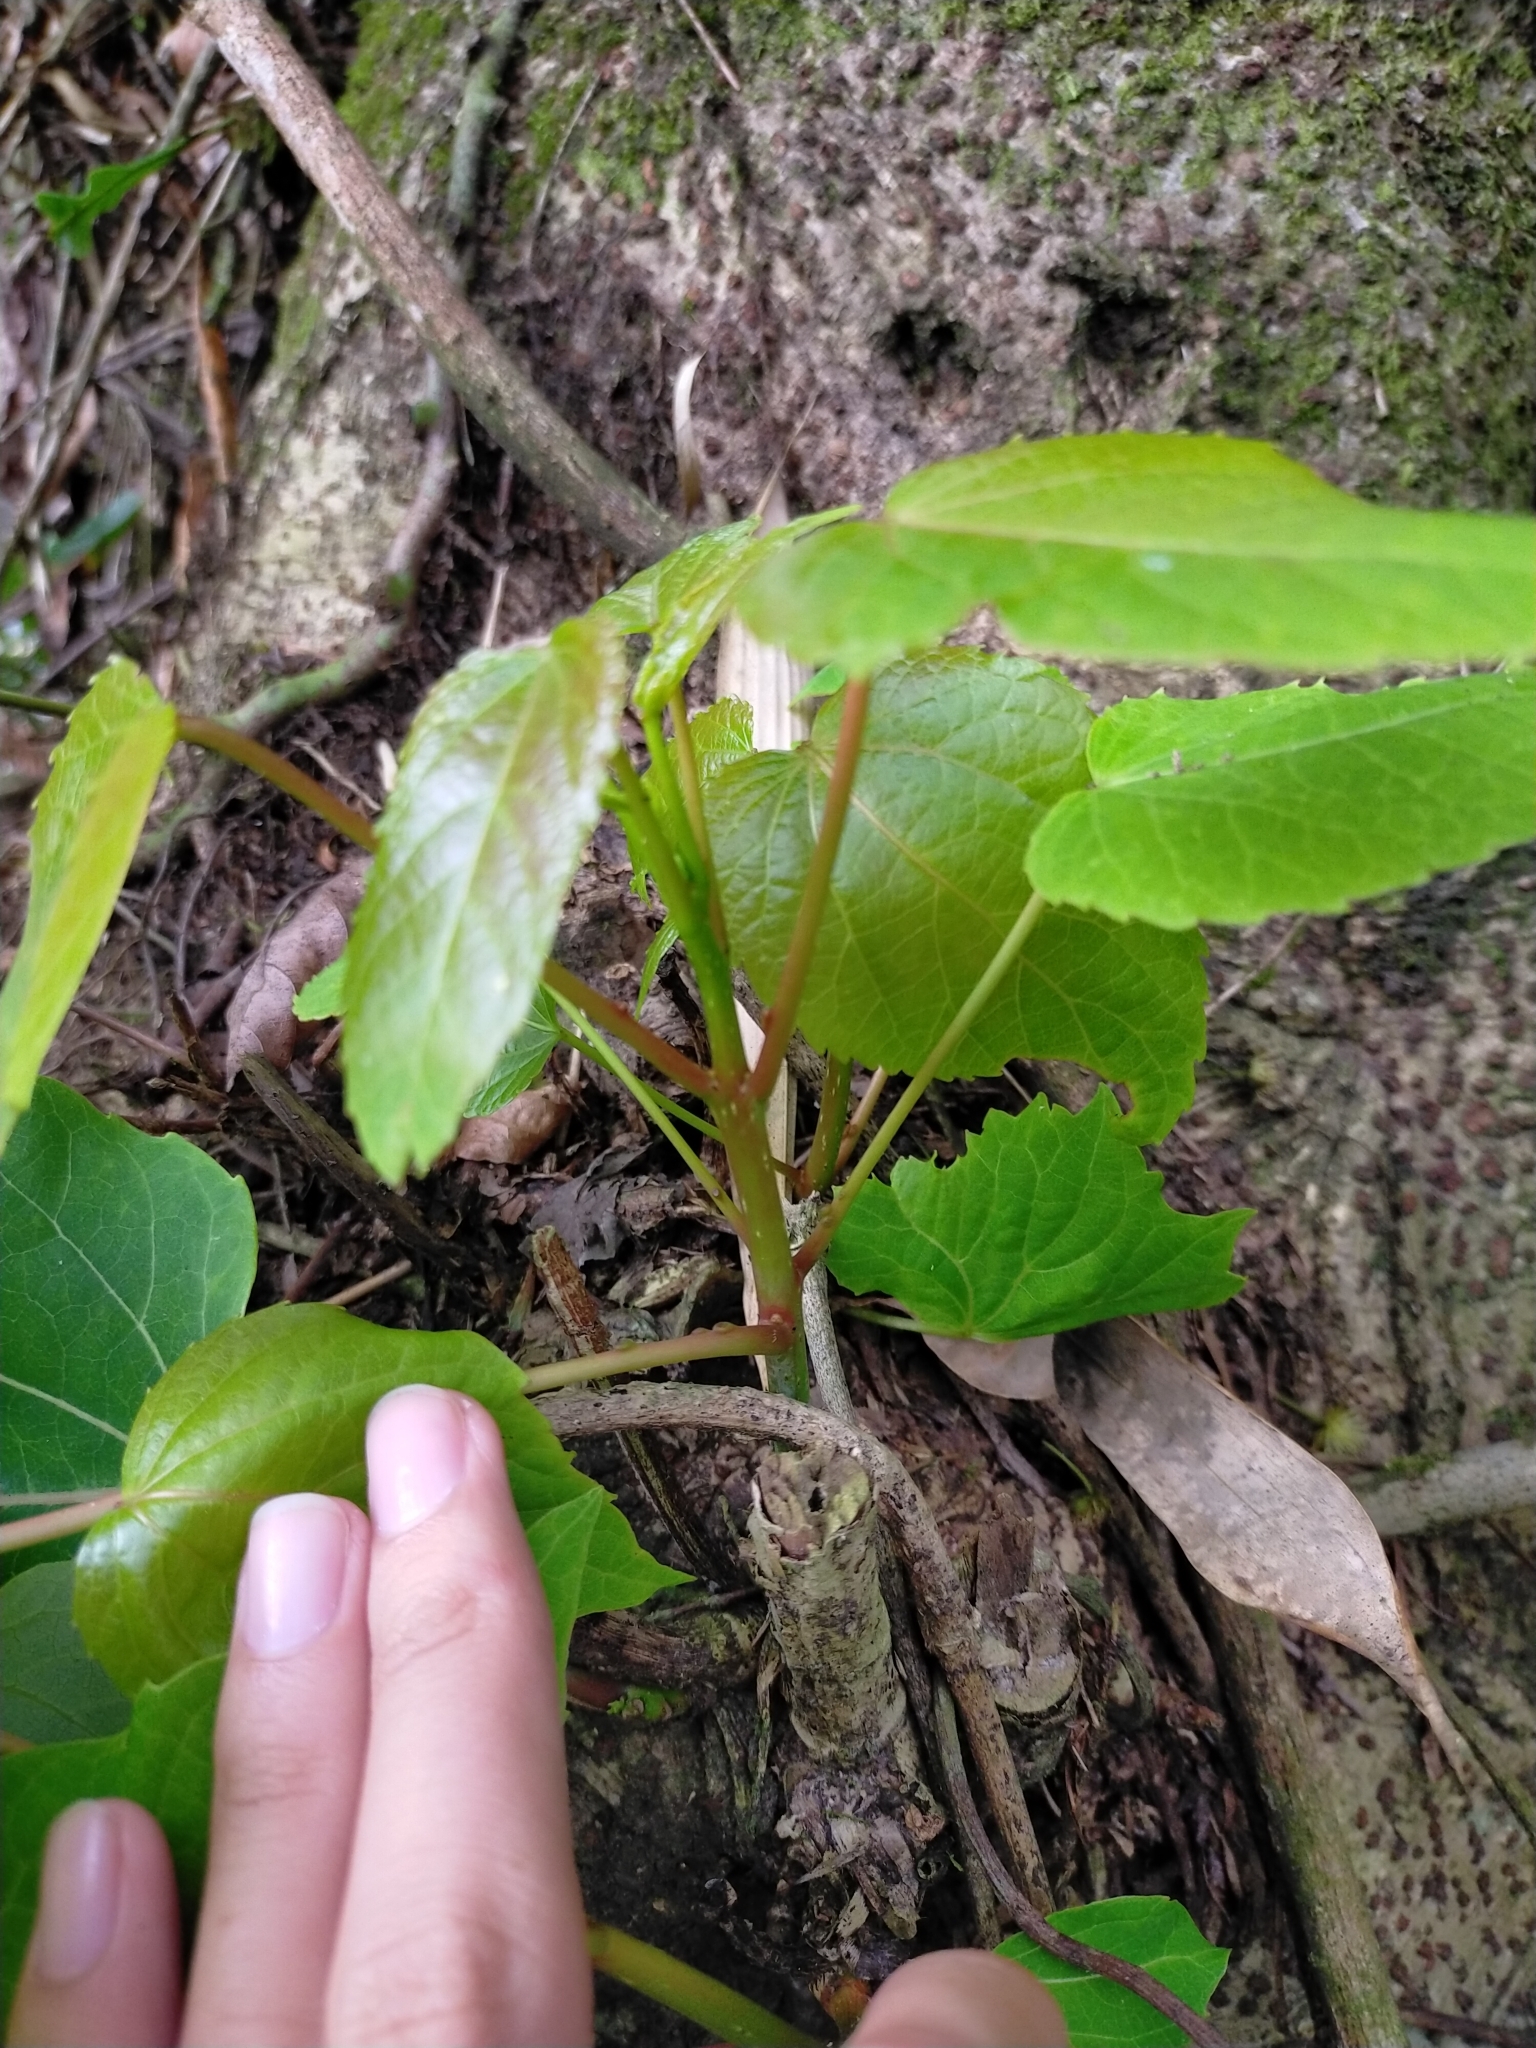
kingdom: Plantae
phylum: Tracheophyta
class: Magnoliopsida
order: Malpighiales
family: Salicaceae
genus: Idesia
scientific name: Idesia polycarpa
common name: Idesia tree
